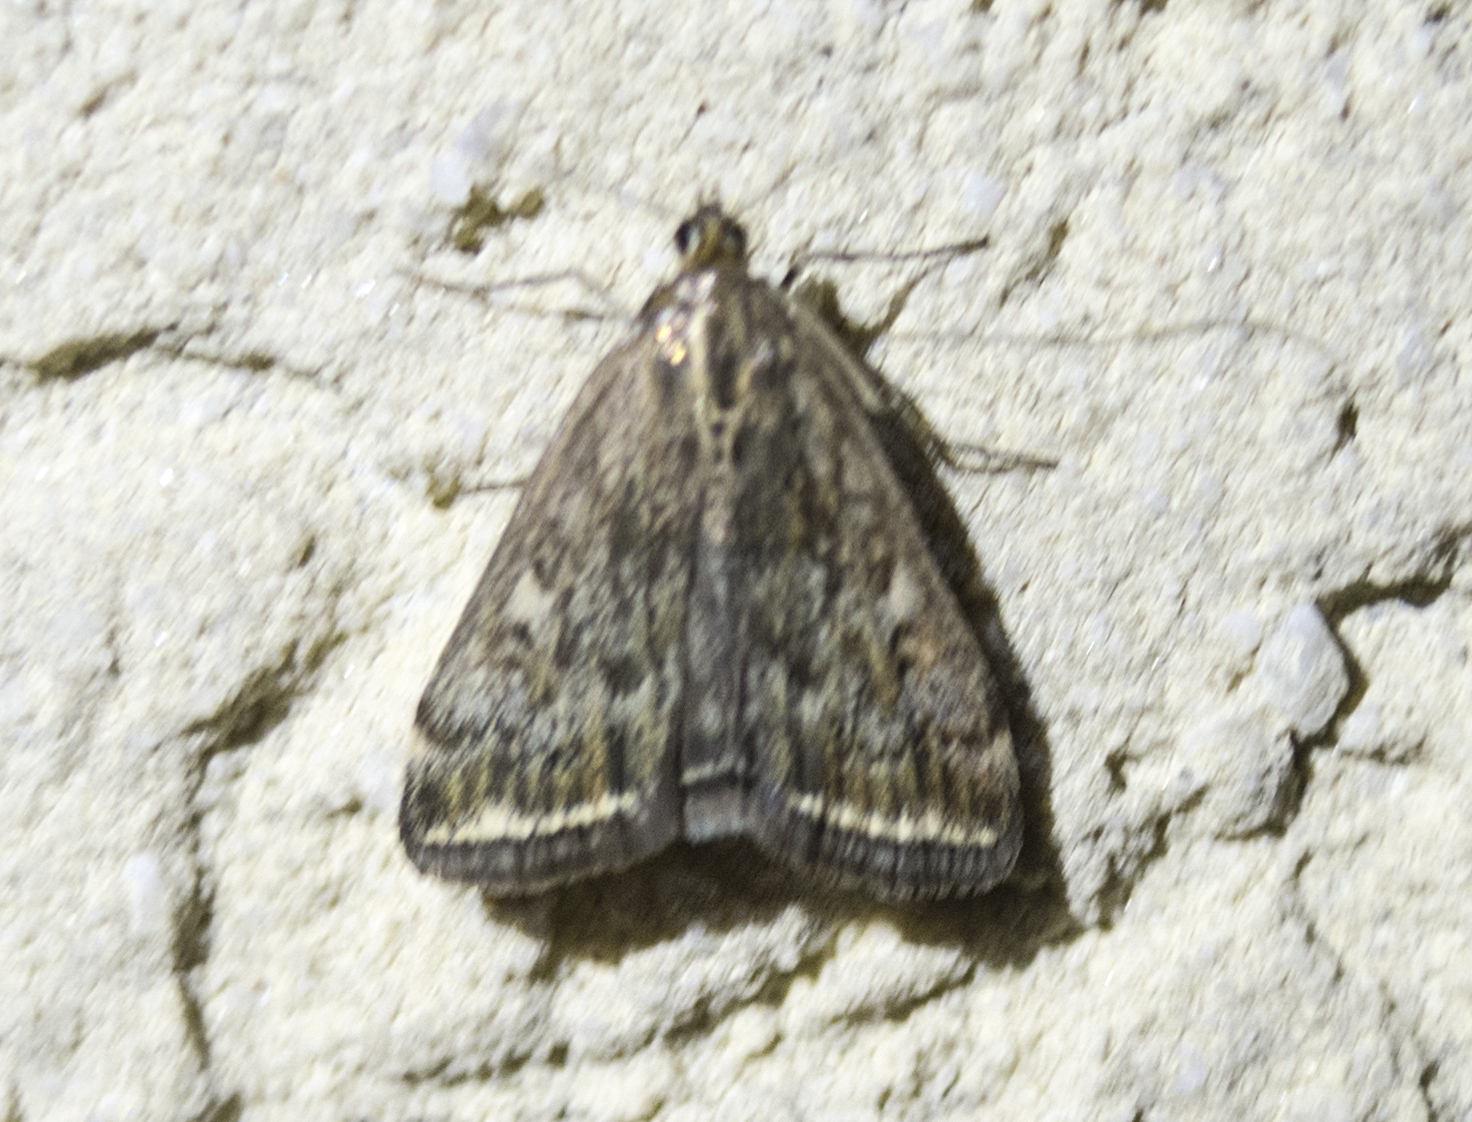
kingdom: Animalia
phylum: Arthropoda
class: Insecta
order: Lepidoptera
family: Crambidae
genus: Loxostege
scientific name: Loxostege sticticalis
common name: Crambid moth
